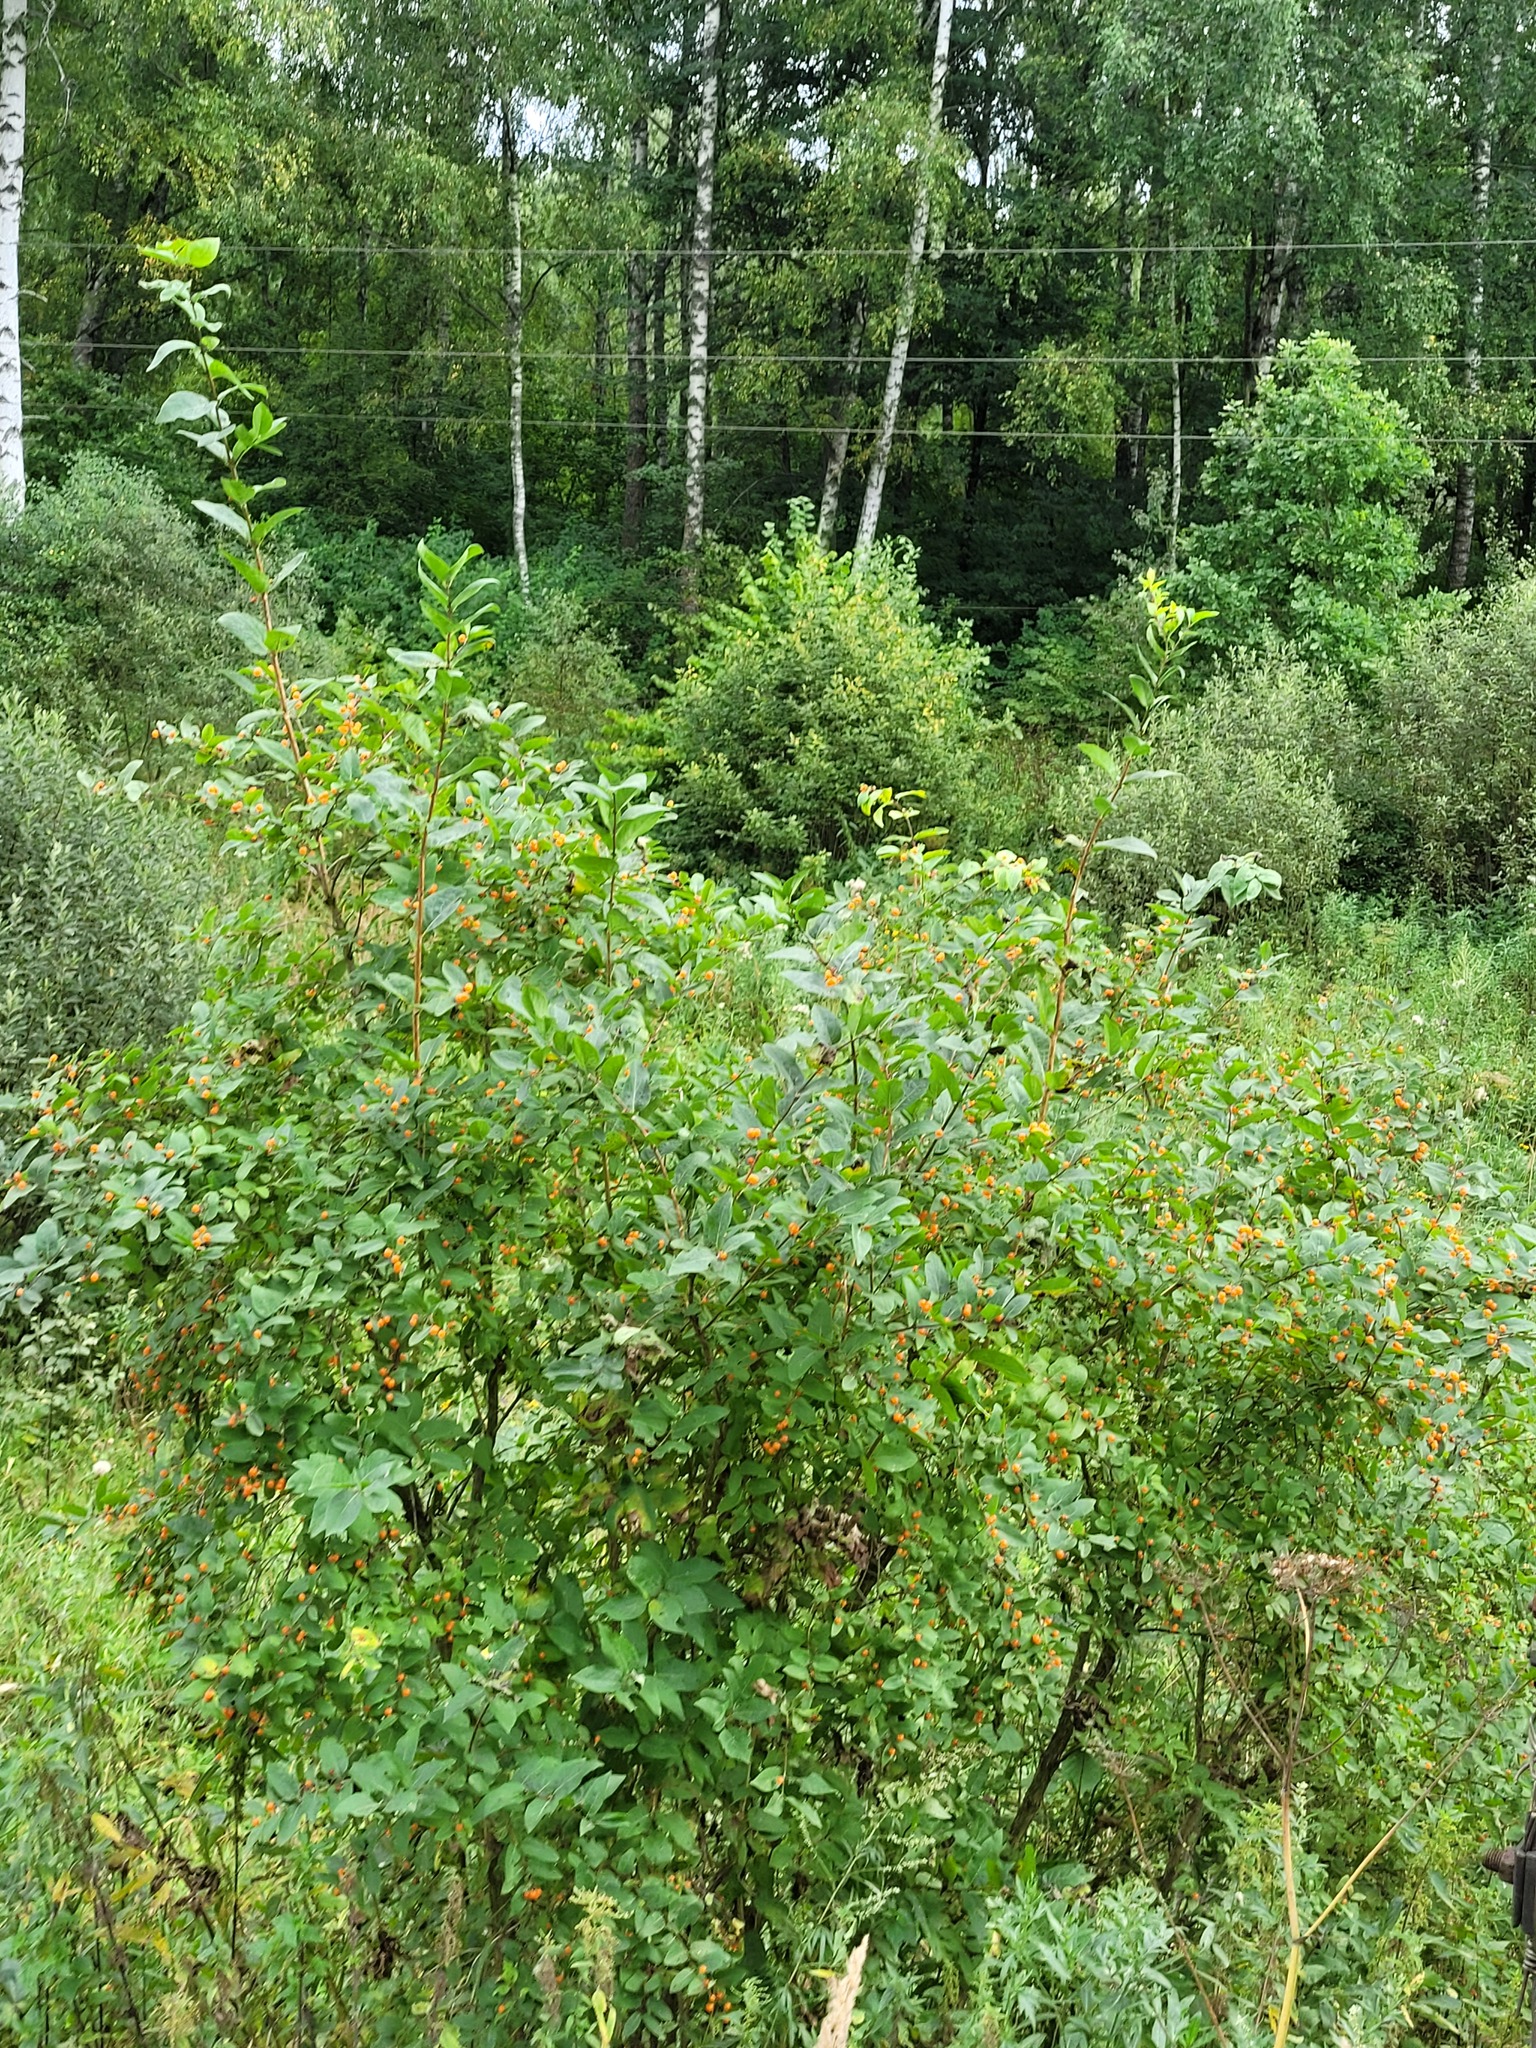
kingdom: Plantae
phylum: Tracheophyta
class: Magnoliopsida
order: Dipsacales
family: Caprifoliaceae
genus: Lonicera
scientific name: Lonicera tatarica
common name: Tatarian honeysuckle
